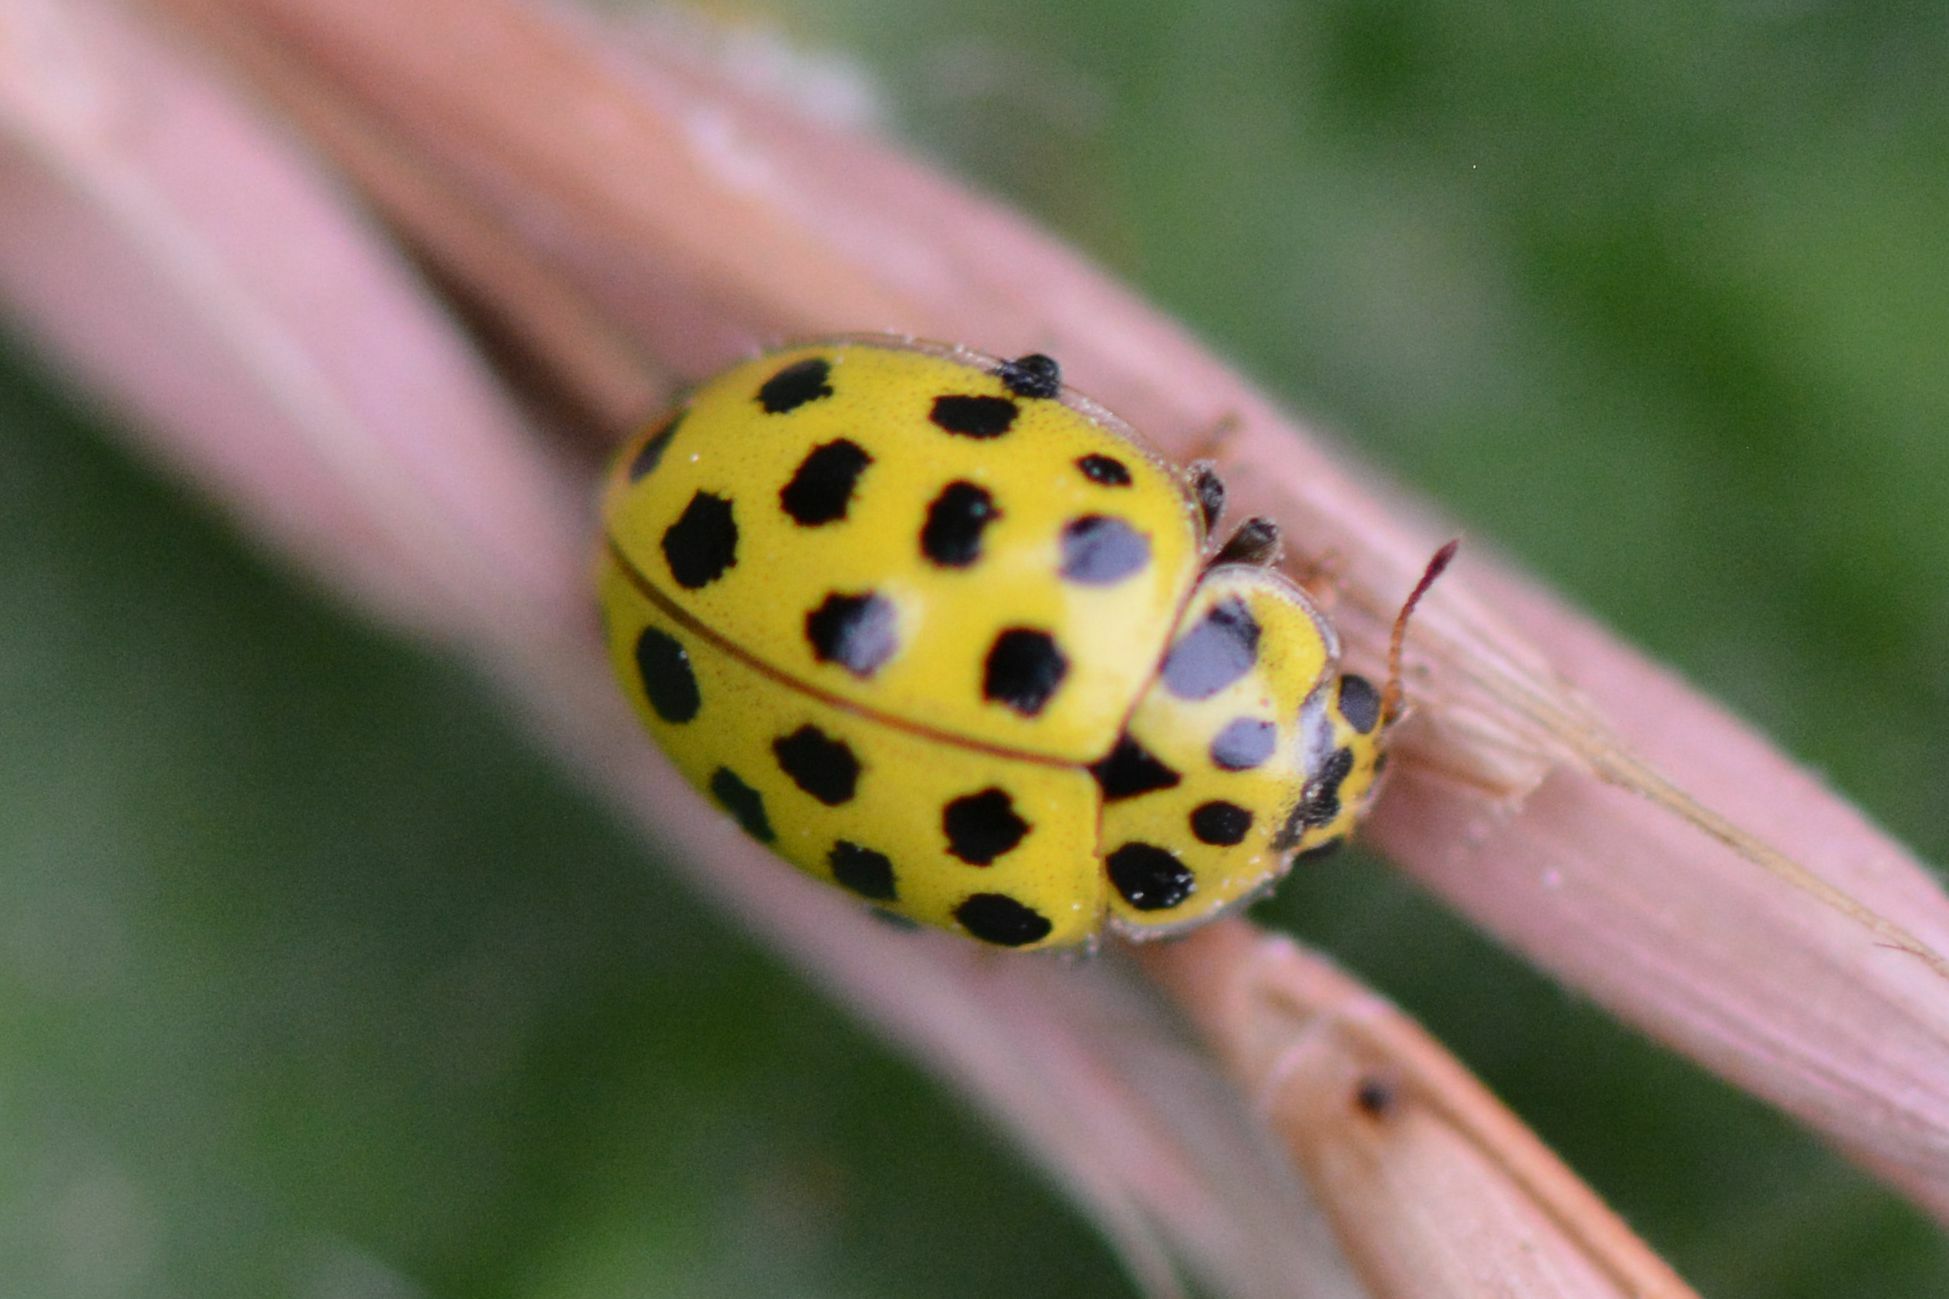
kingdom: Animalia
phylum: Arthropoda
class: Insecta
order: Coleoptera
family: Coccinellidae
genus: Psyllobora
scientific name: Psyllobora vigintiduopunctata
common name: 22-spot ladybird
